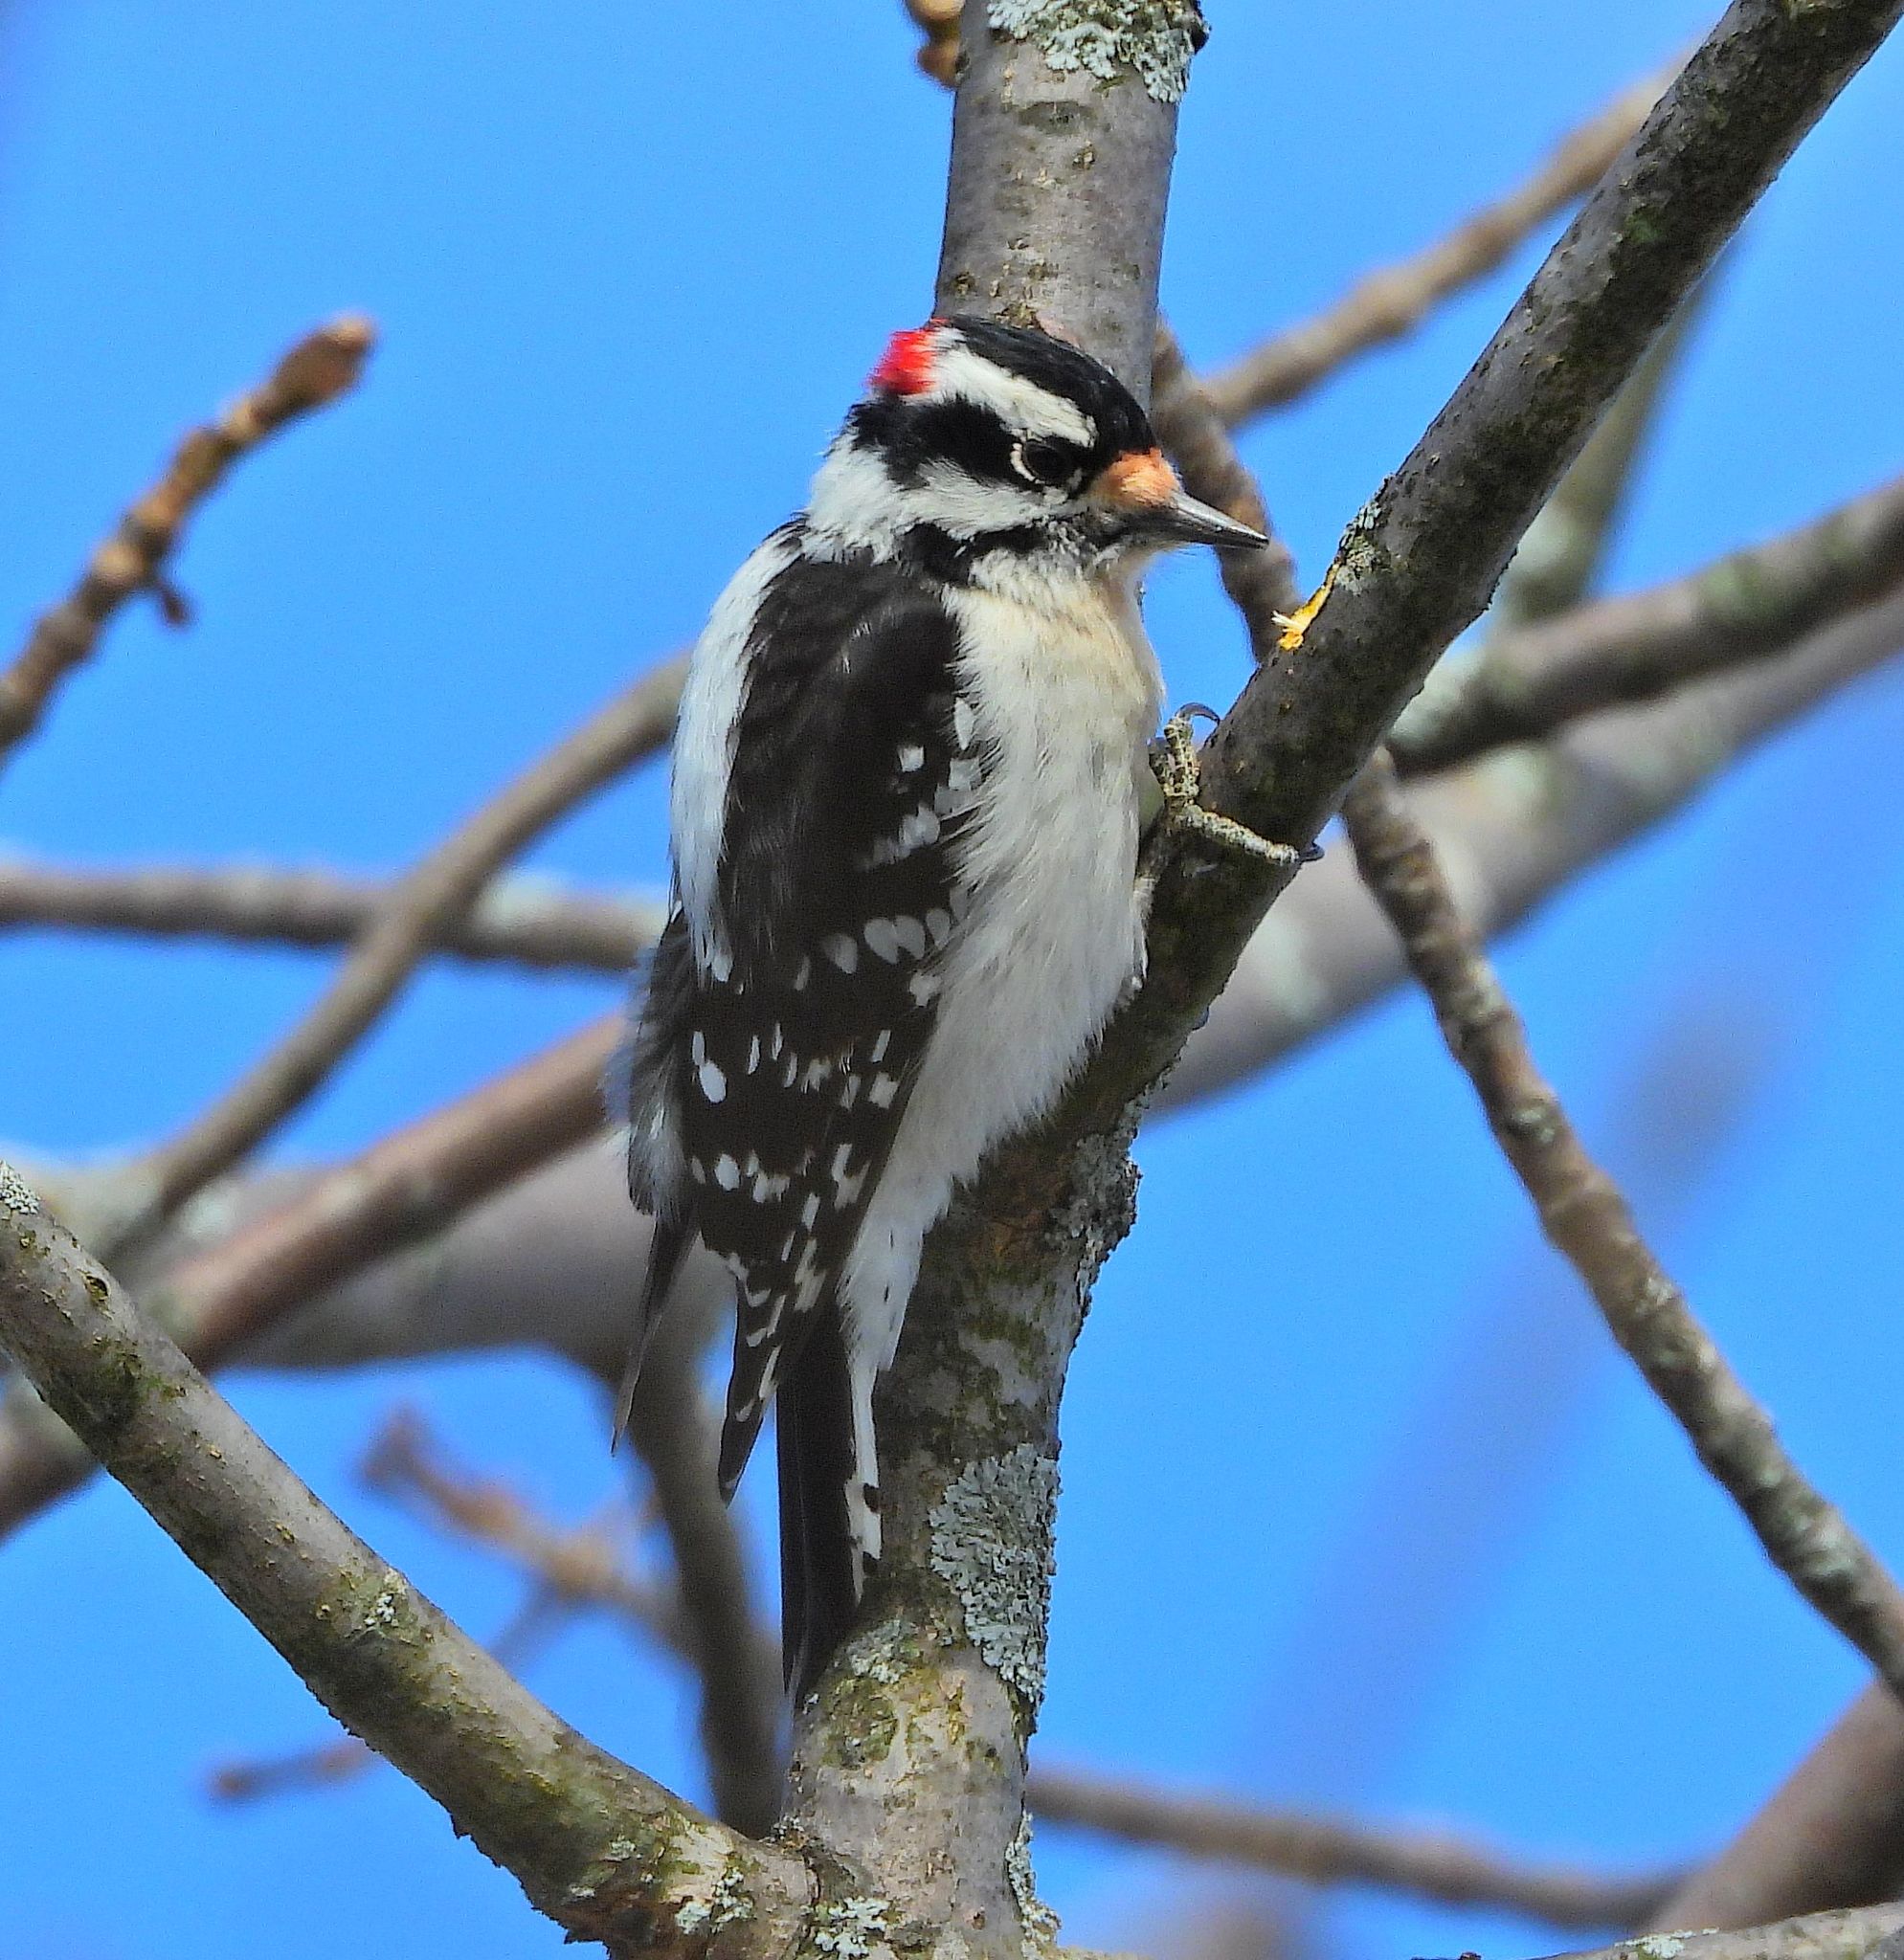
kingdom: Animalia
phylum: Chordata
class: Aves
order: Piciformes
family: Picidae
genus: Dryobates
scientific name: Dryobates pubescens
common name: Downy woodpecker
